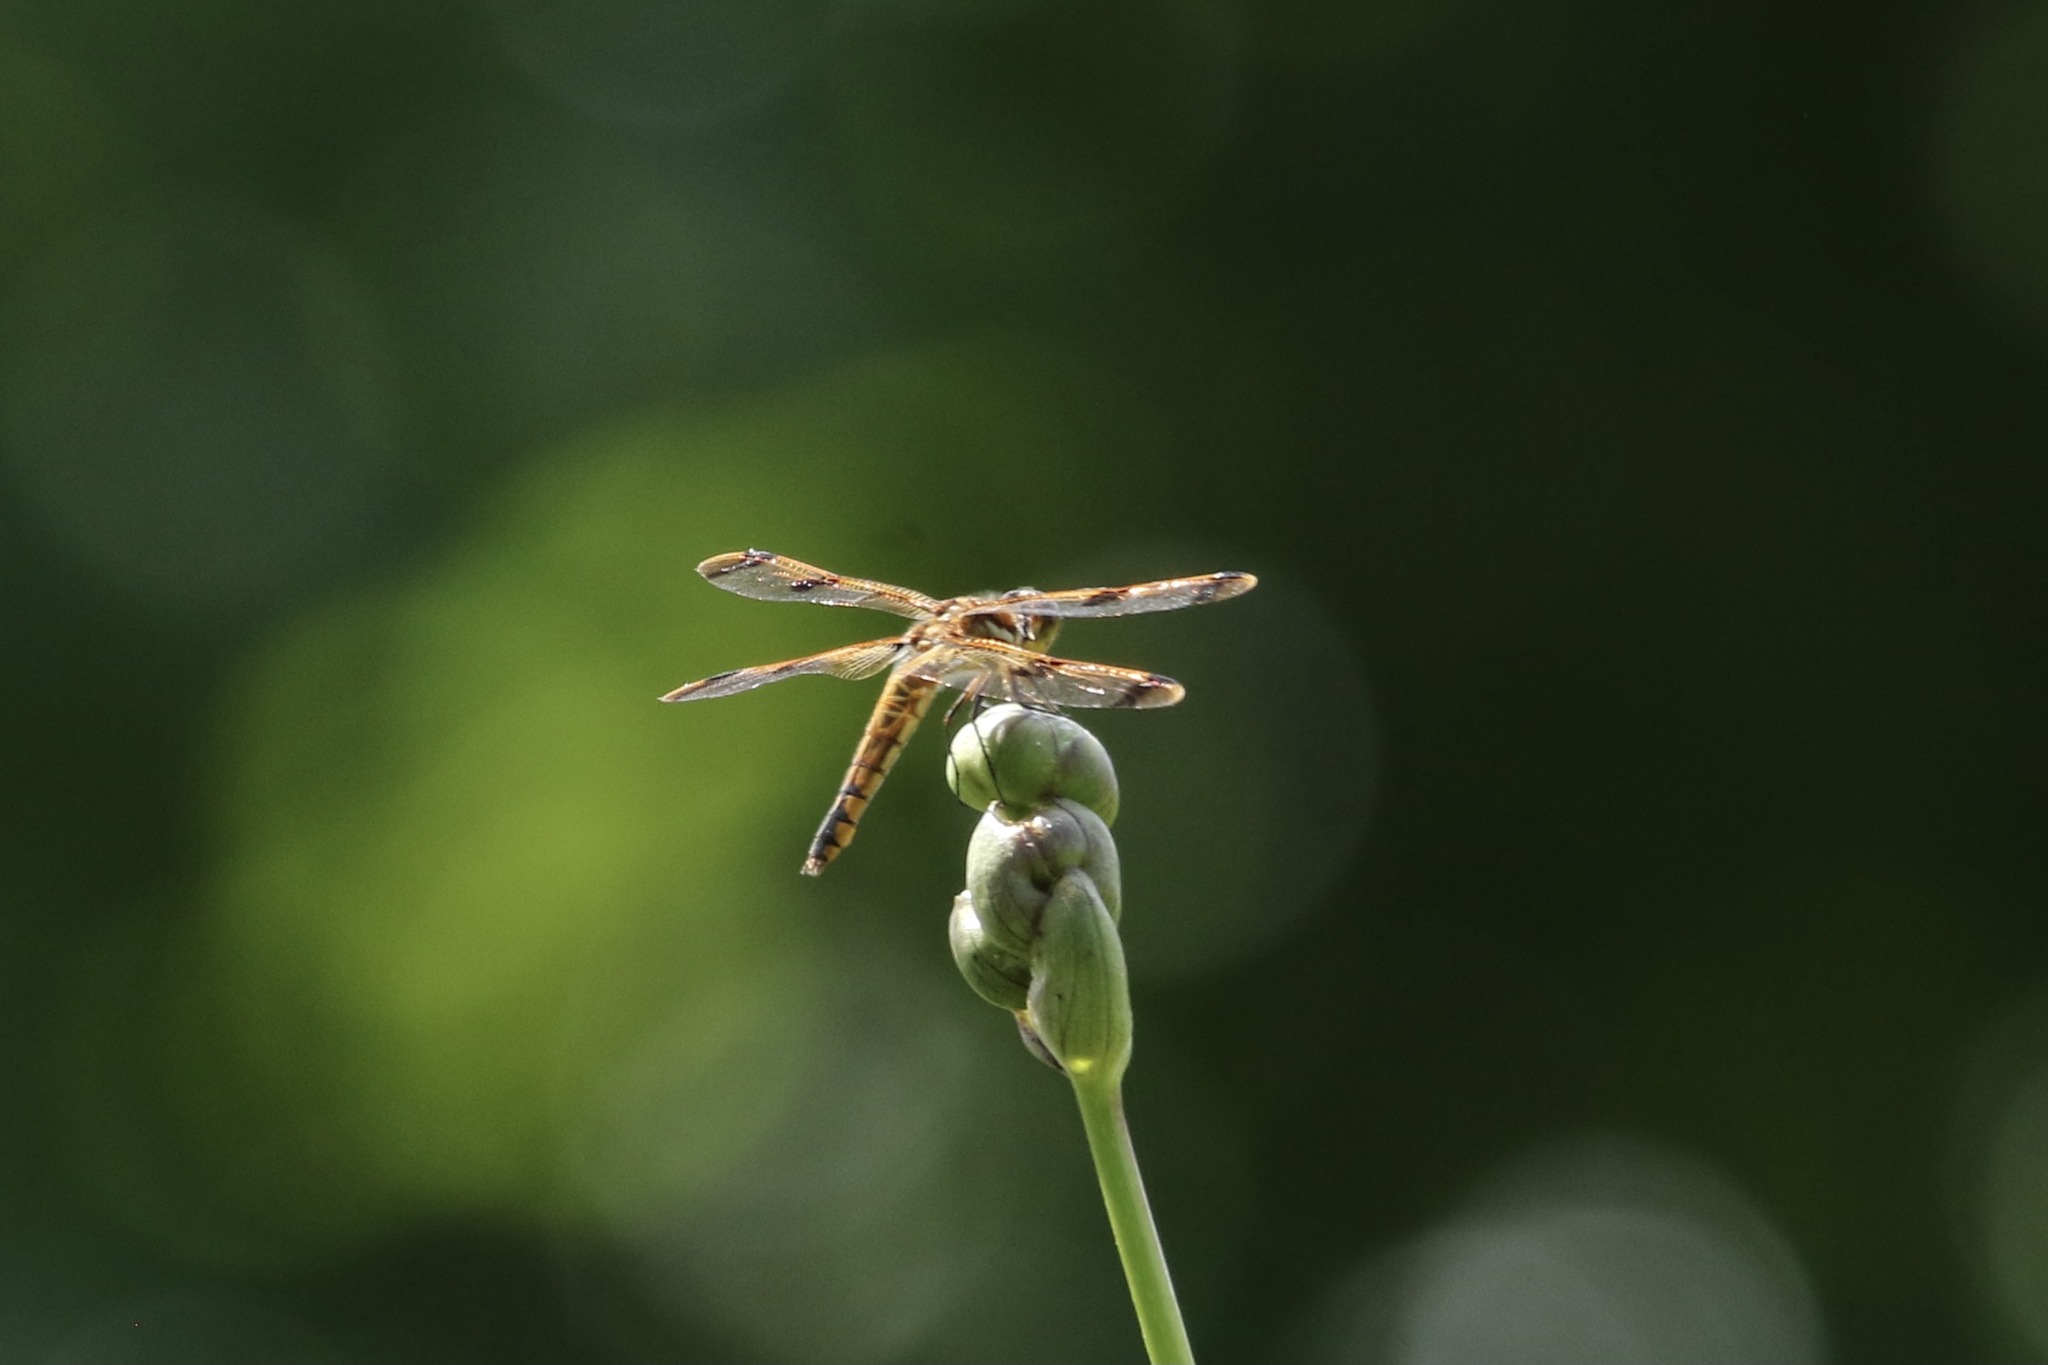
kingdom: Animalia
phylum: Arthropoda
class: Insecta
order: Odonata
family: Libellulidae
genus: Libellula
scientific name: Libellula semifasciata
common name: Painted skimmer
